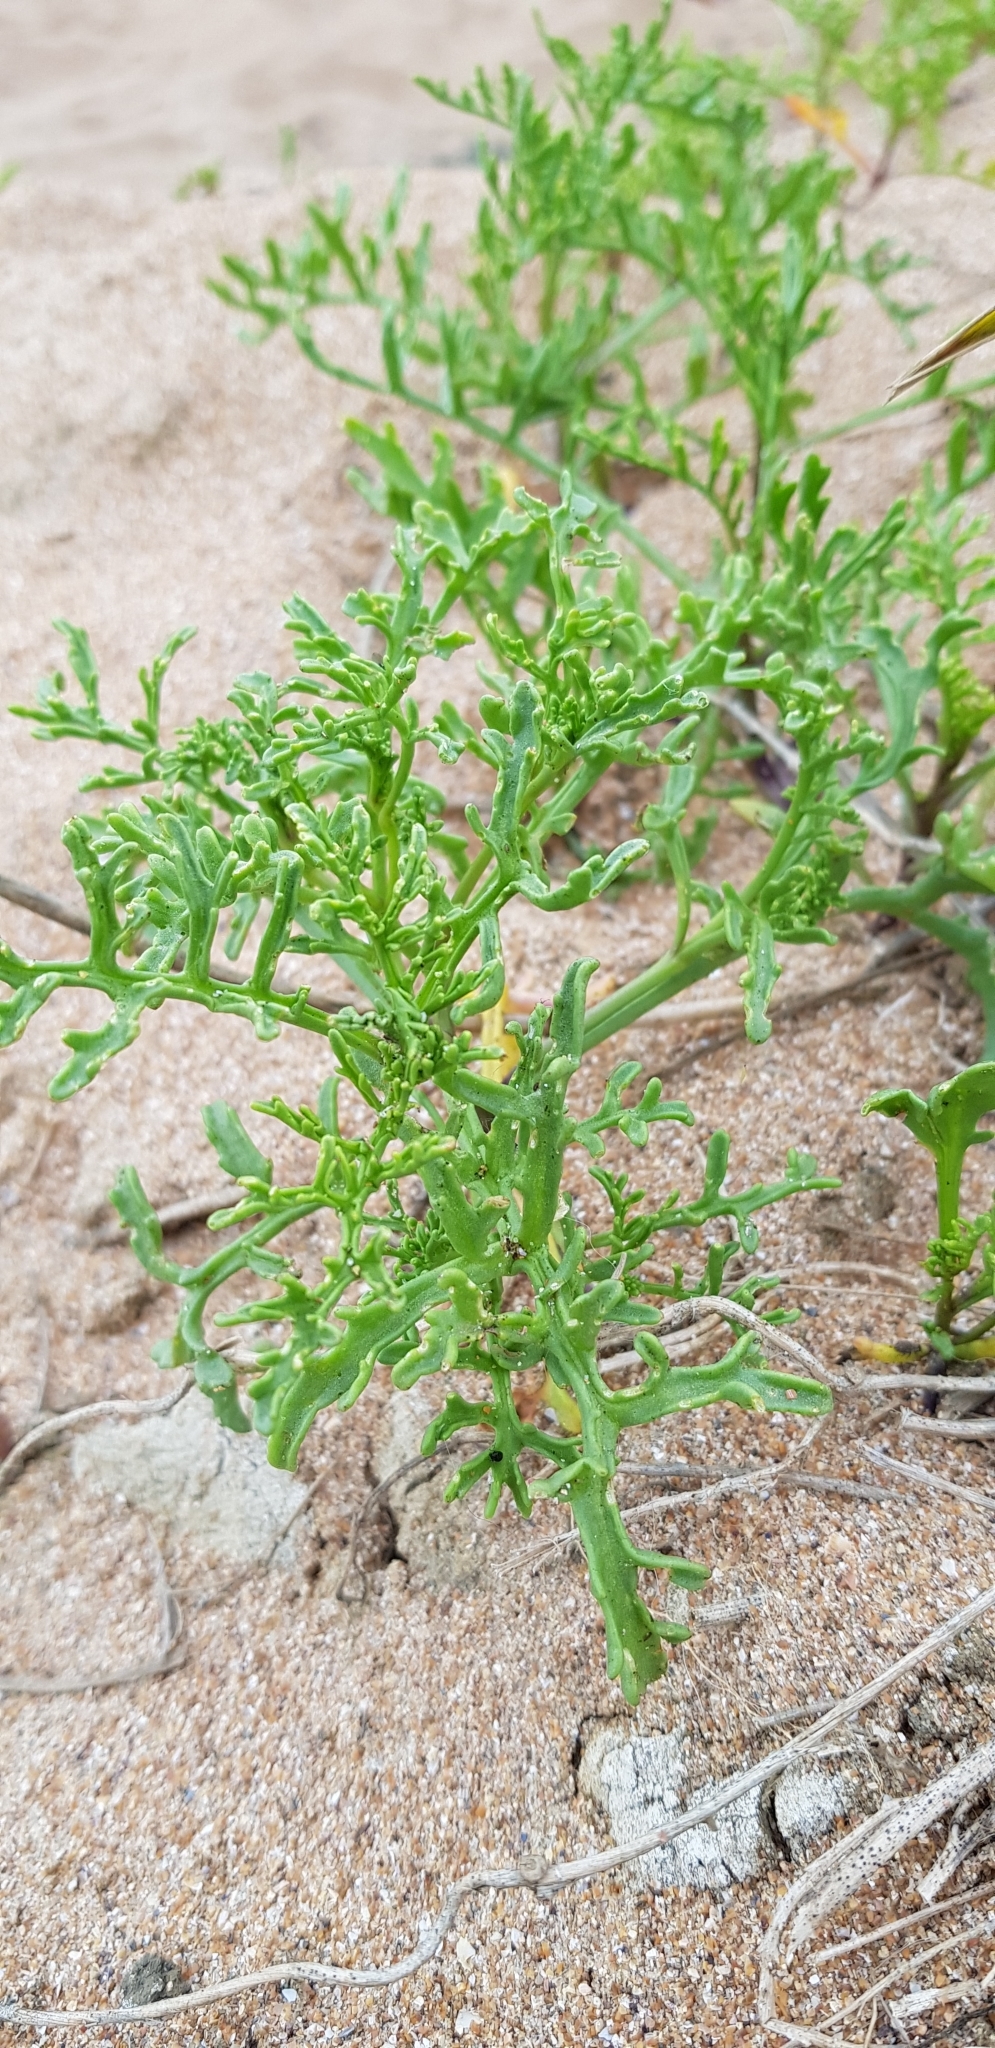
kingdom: Plantae
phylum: Tracheophyta
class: Magnoliopsida
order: Brassicales
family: Brassicaceae
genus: Cakile
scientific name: Cakile maritima
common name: Sea rocket
